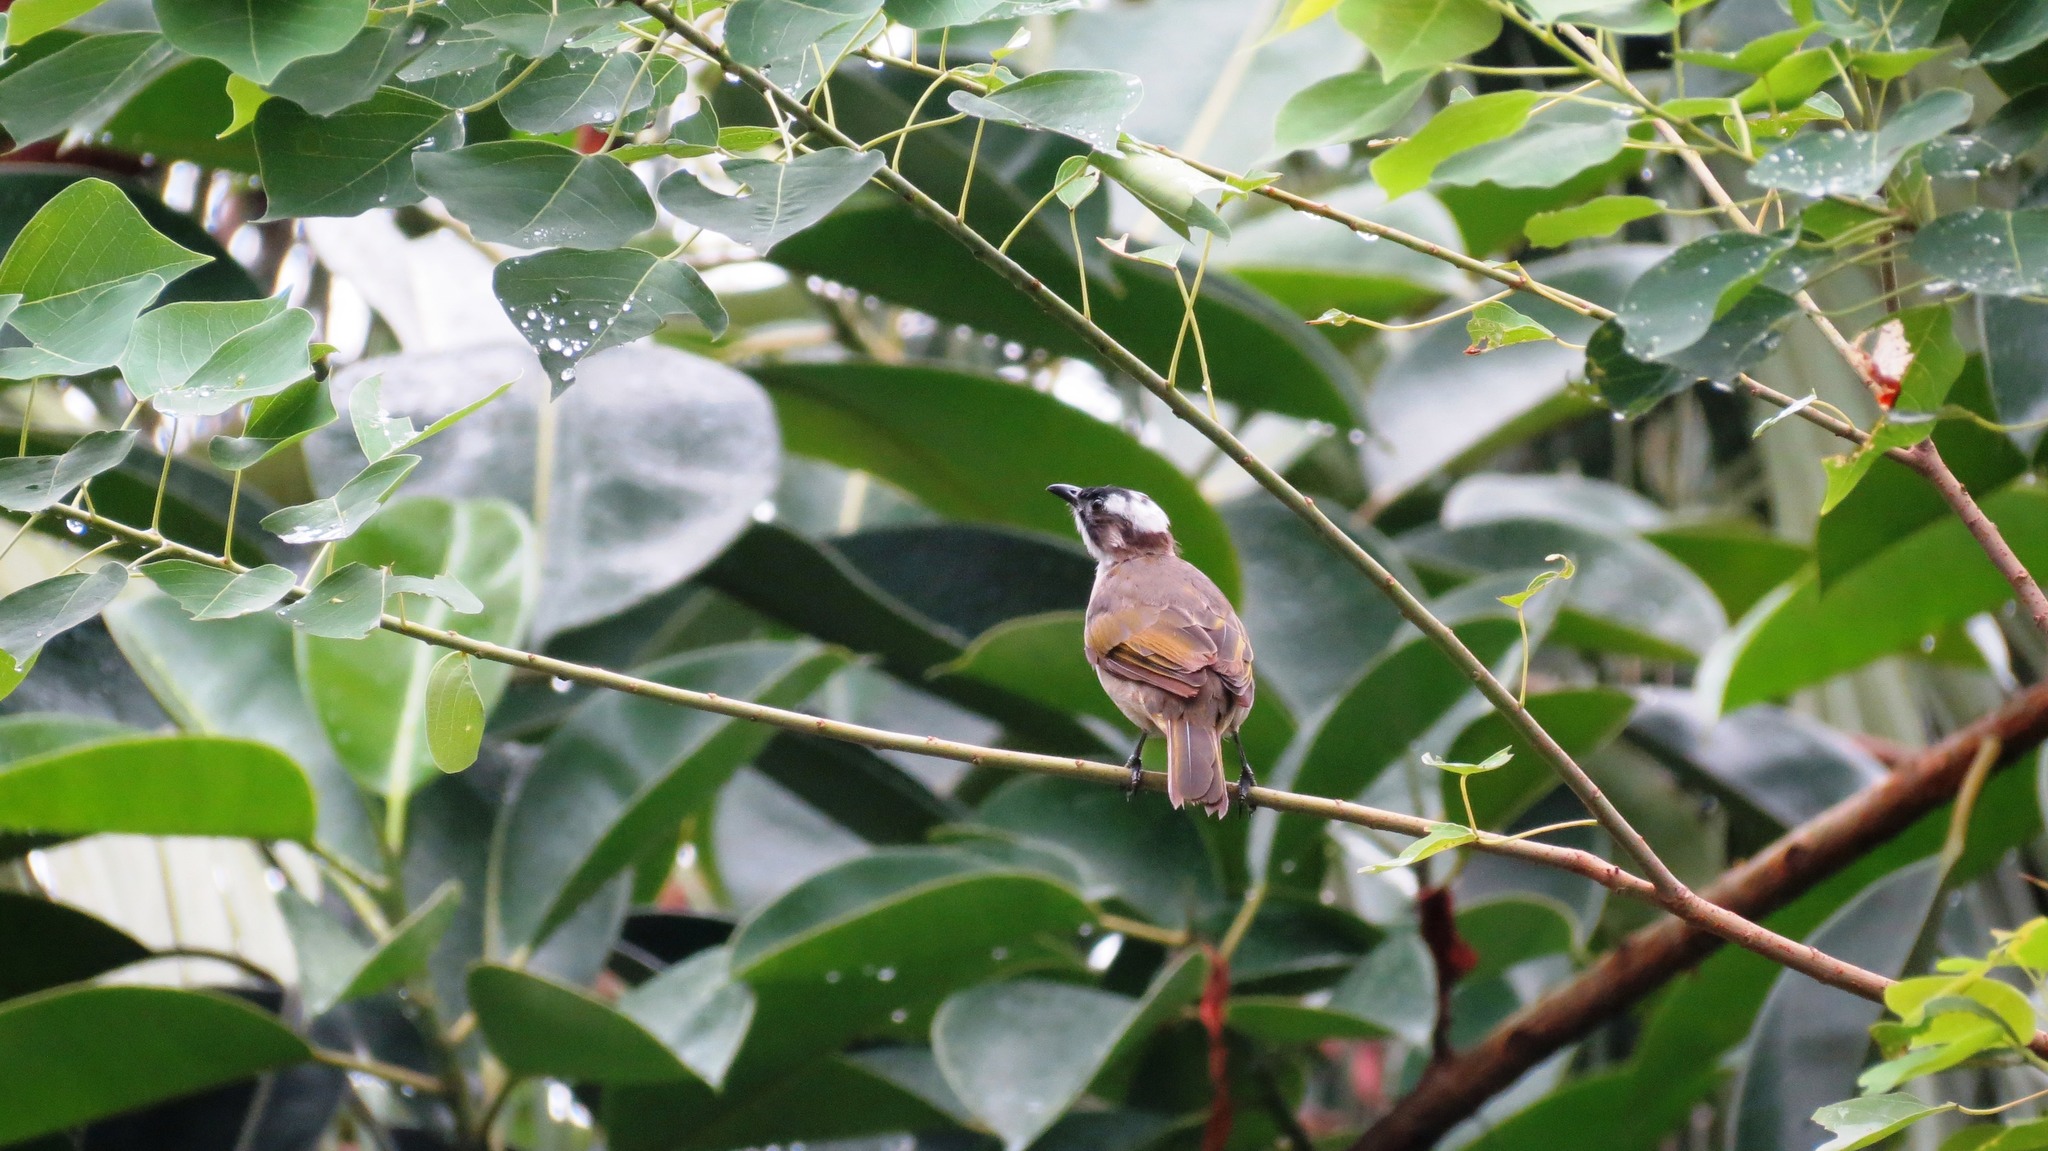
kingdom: Animalia
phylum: Chordata
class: Aves
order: Passeriformes
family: Pycnonotidae
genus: Pycnonotus
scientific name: Pycnonotus sinensis
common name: Light-vented bulbul
